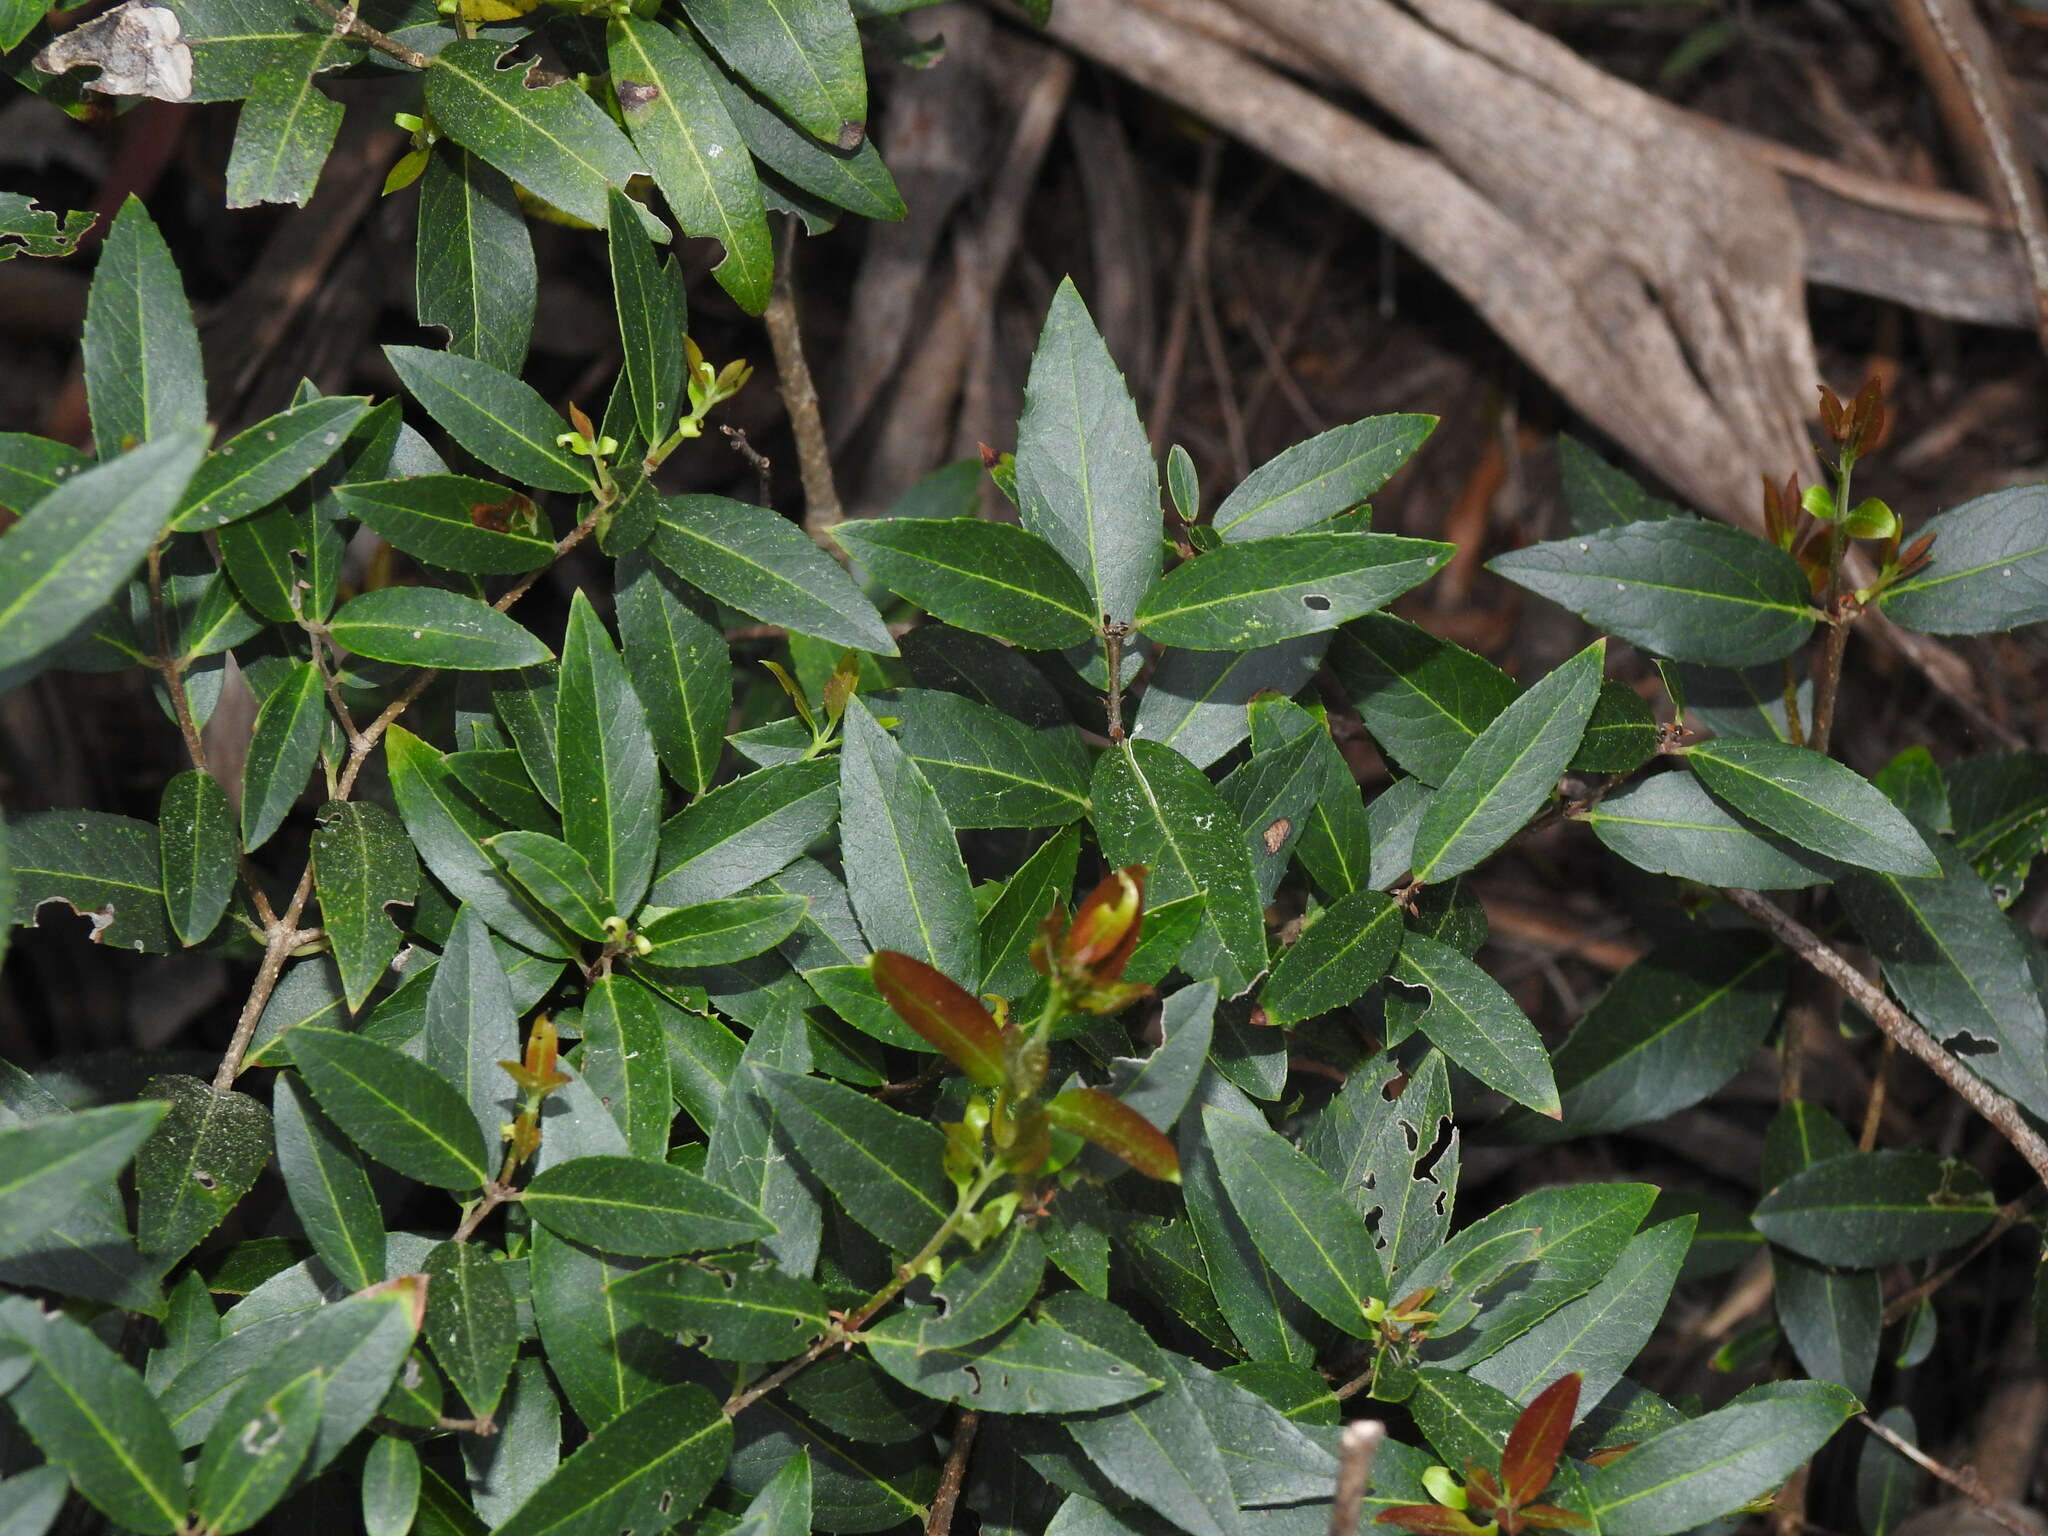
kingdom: Plantae
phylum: Tracheophyta
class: Magnoliopsida
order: Lamiales
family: Oleaceae
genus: Phillyrea
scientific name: Phillyrea latifolia
